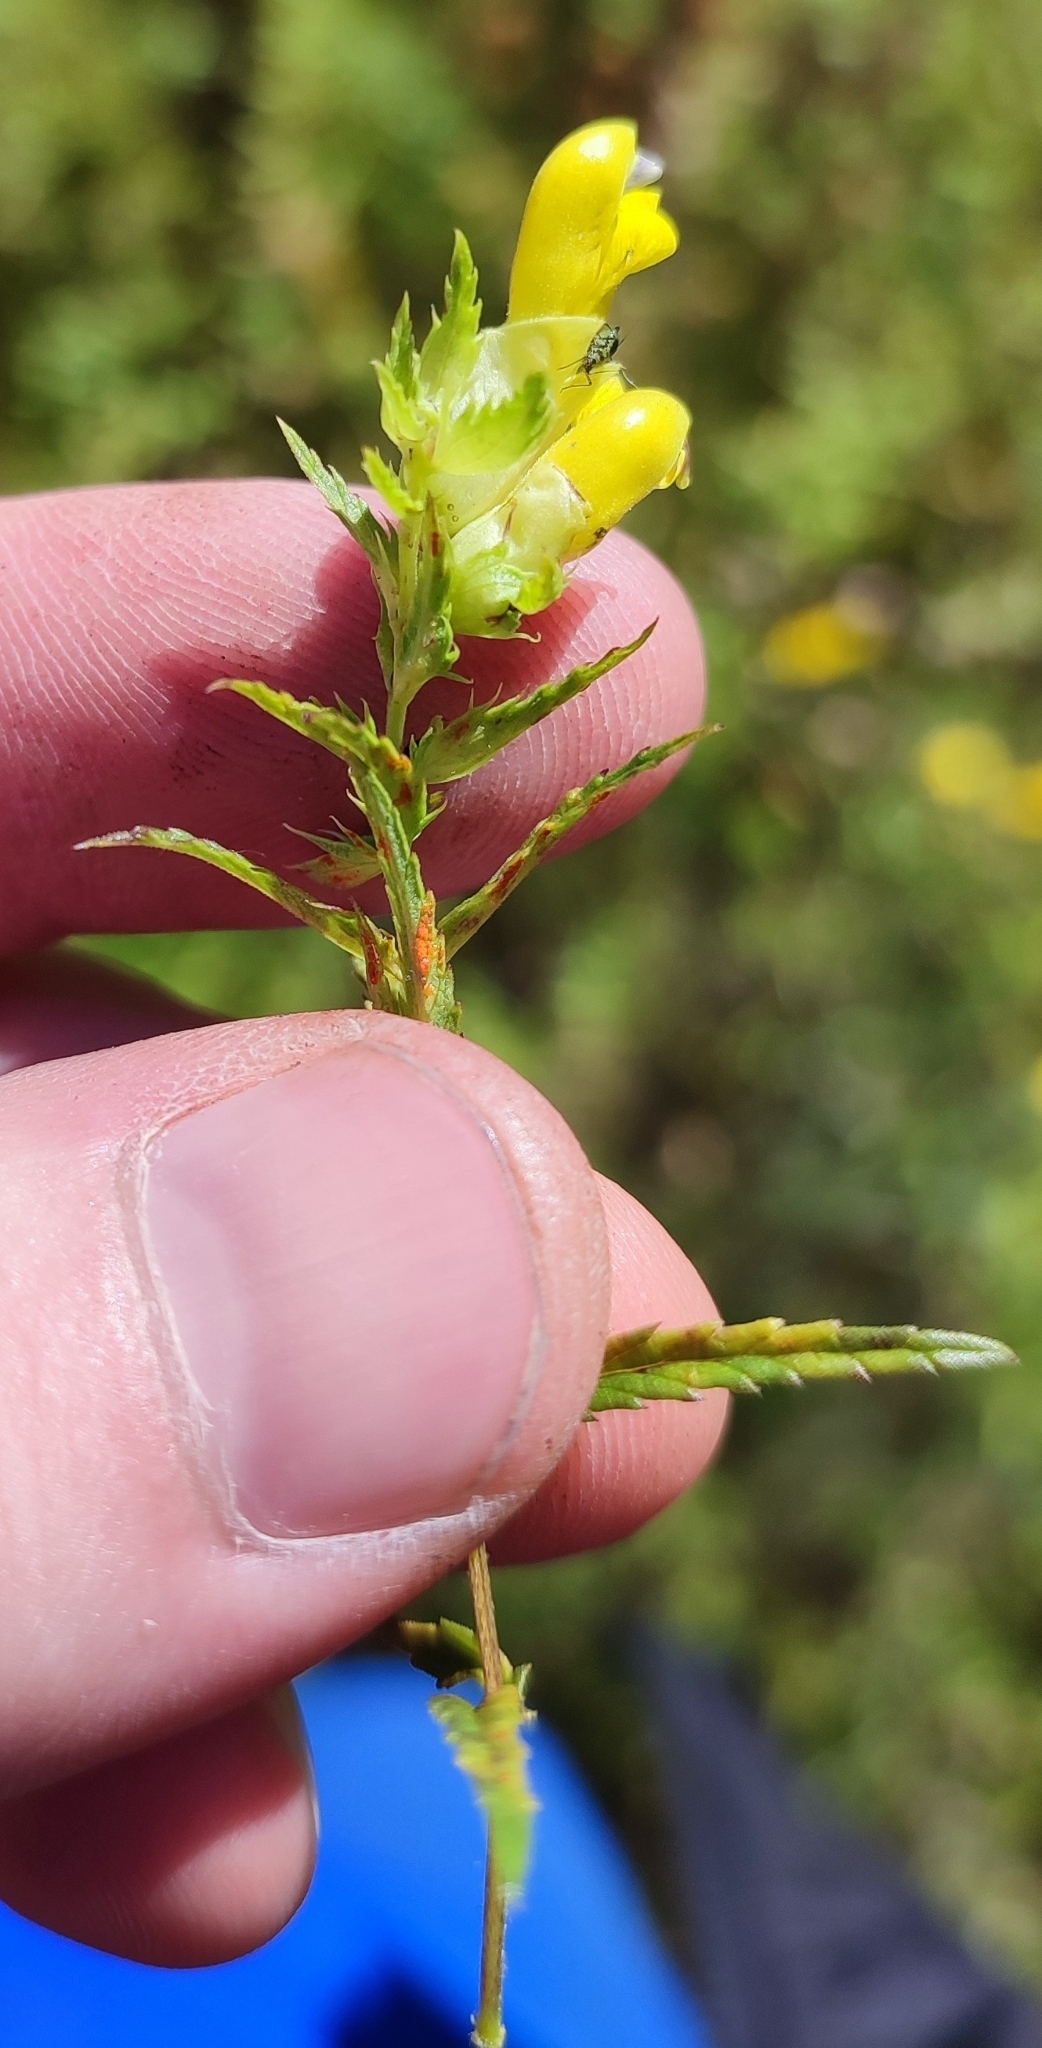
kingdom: Plantae
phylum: Tracheophyta
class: Magnoliopsida
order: Lamiales
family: Orobanchaceae
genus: Rhinanthus
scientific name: Rhinanthus serotinus
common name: Late-flowering yellow rattle
